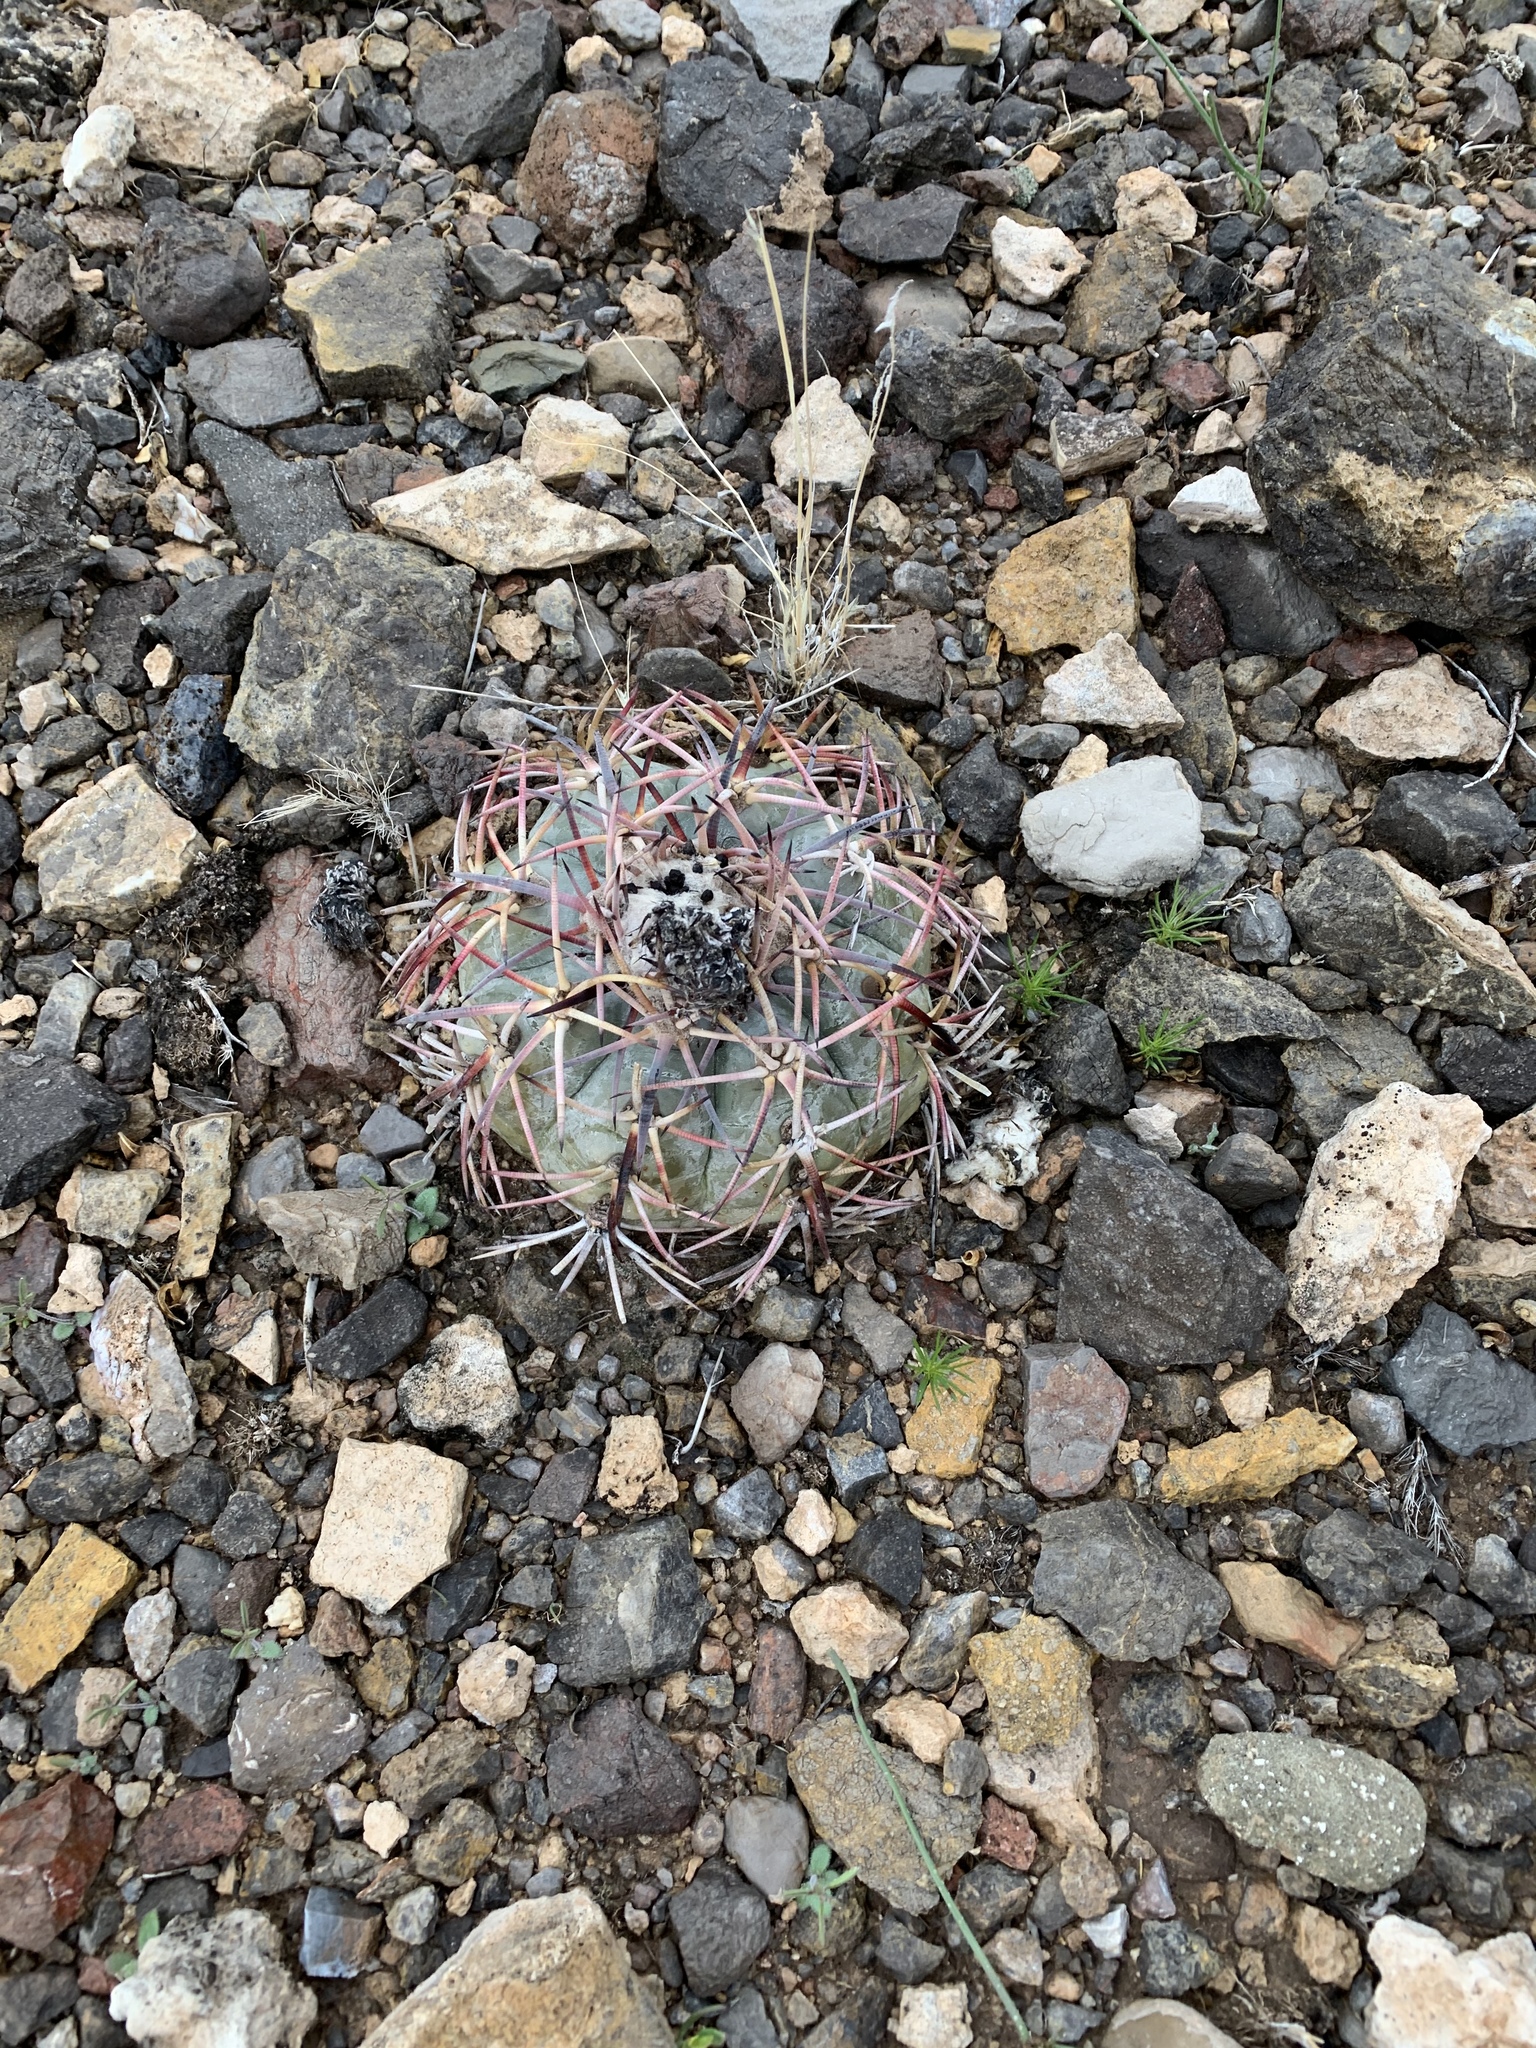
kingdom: Plantae
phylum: Tracheophyta
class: Magnoliopsida
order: Caryophyllales
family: Cactaceae
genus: Echinocactus
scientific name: Echinocactus horizonthalonius
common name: Devilshead
